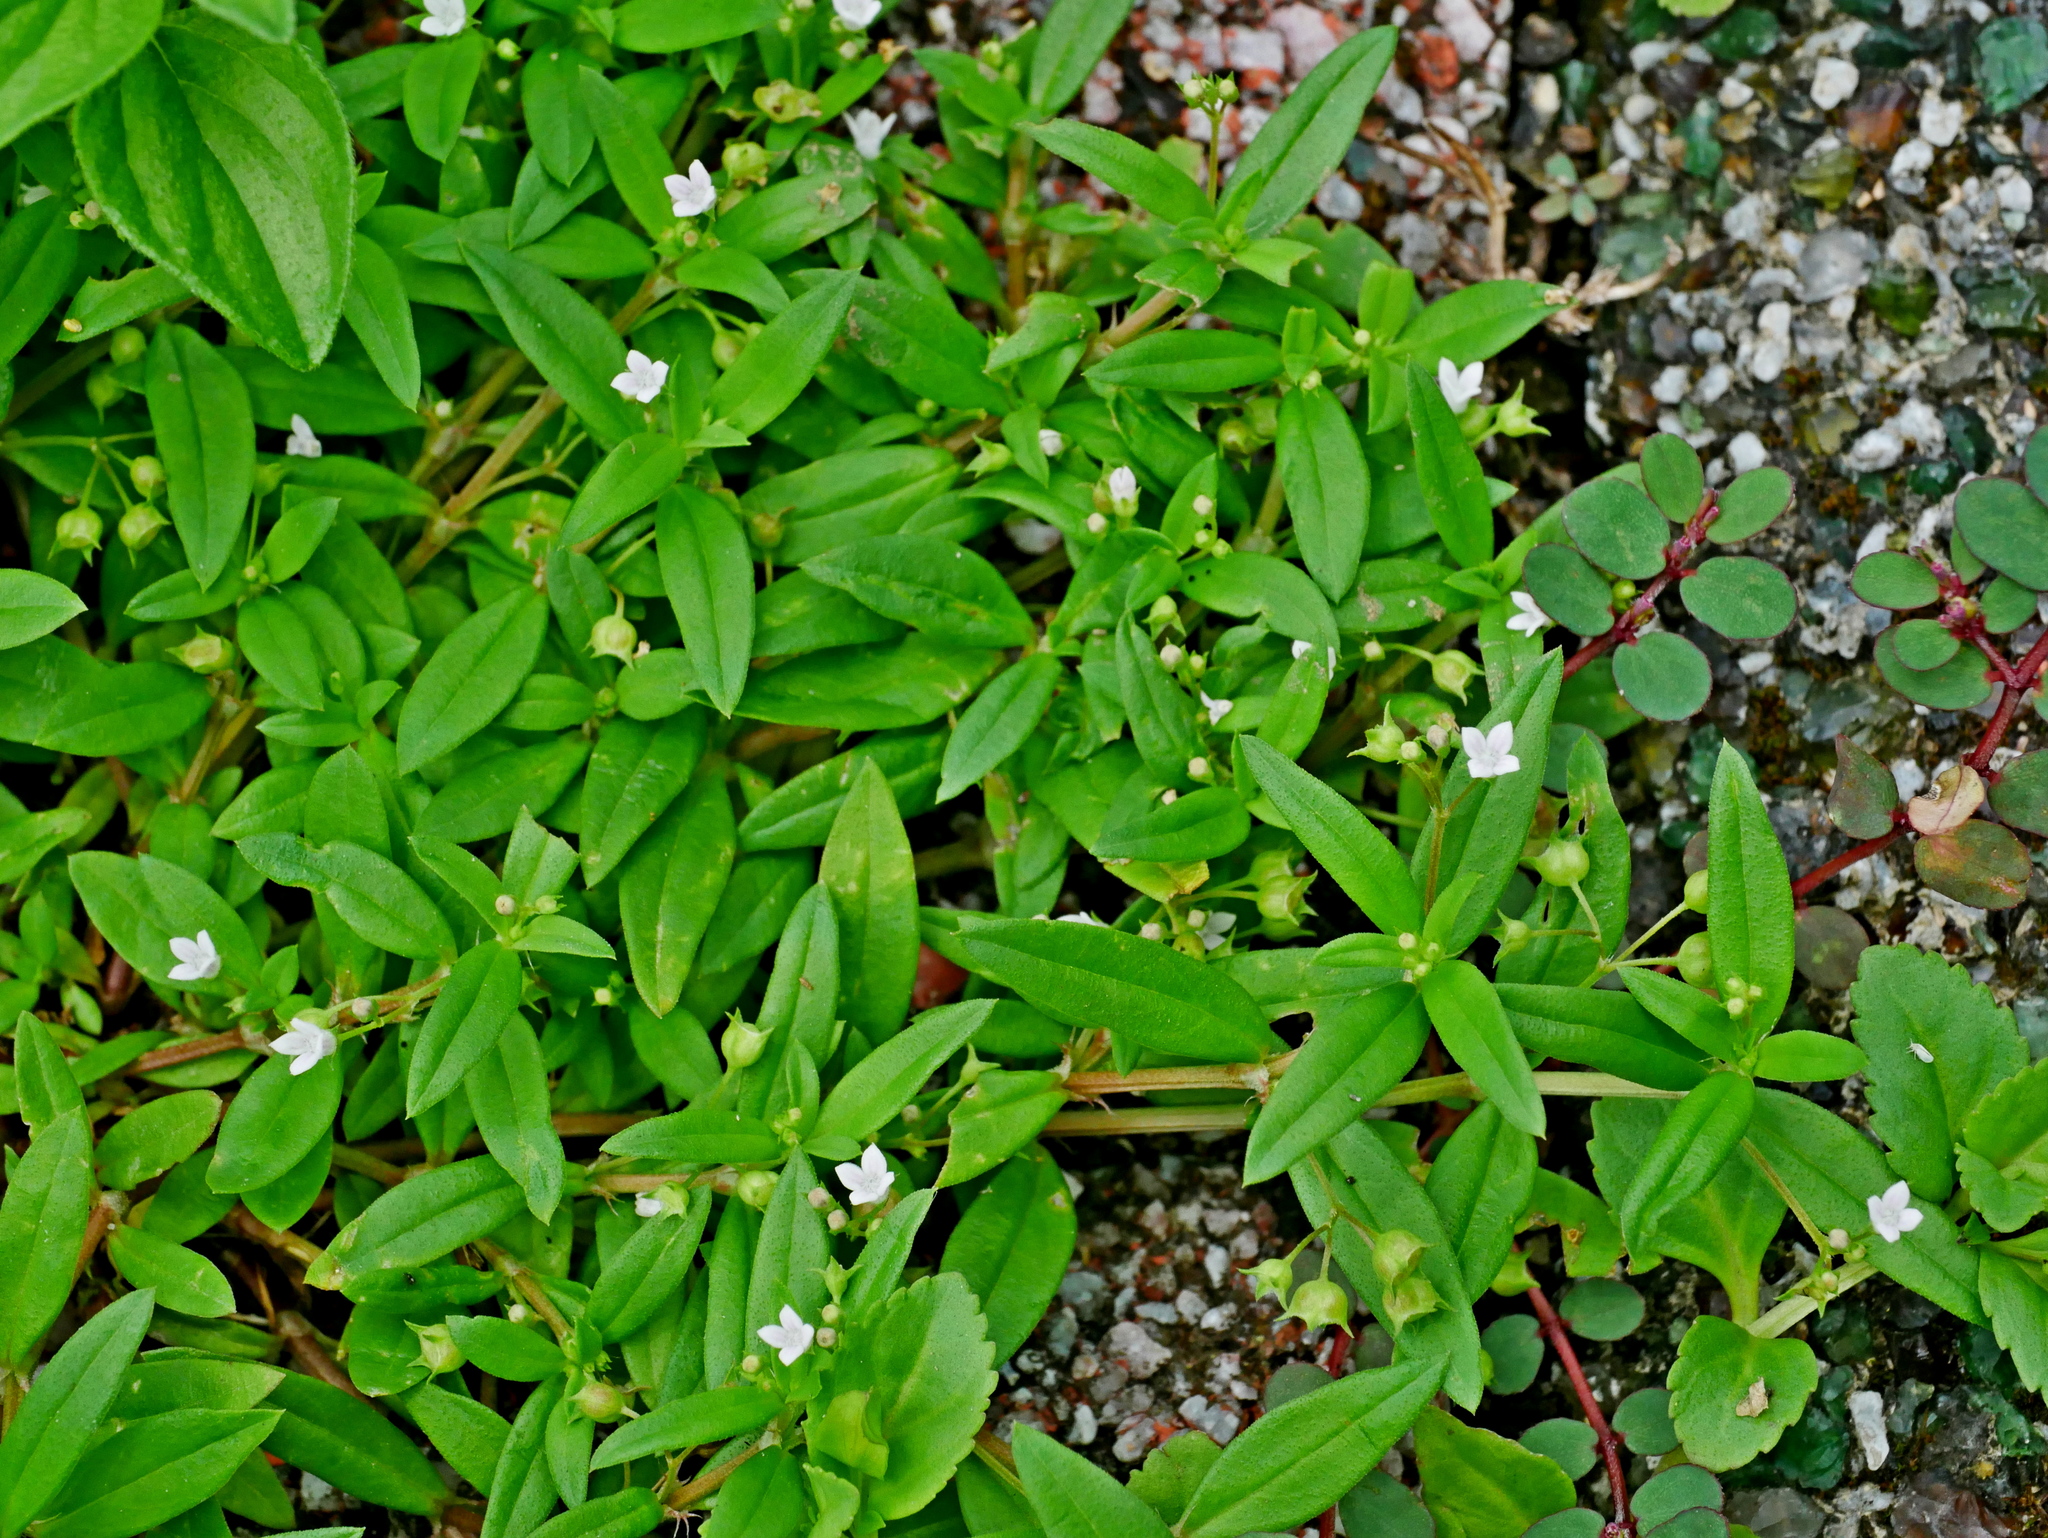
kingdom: Plantae
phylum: Tracheophyta
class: Magnoliopsida
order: Gentianales
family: Rubiaceae
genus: Oldenlandia
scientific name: Oldenlandia corymbosa
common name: Flat-top mille graines
